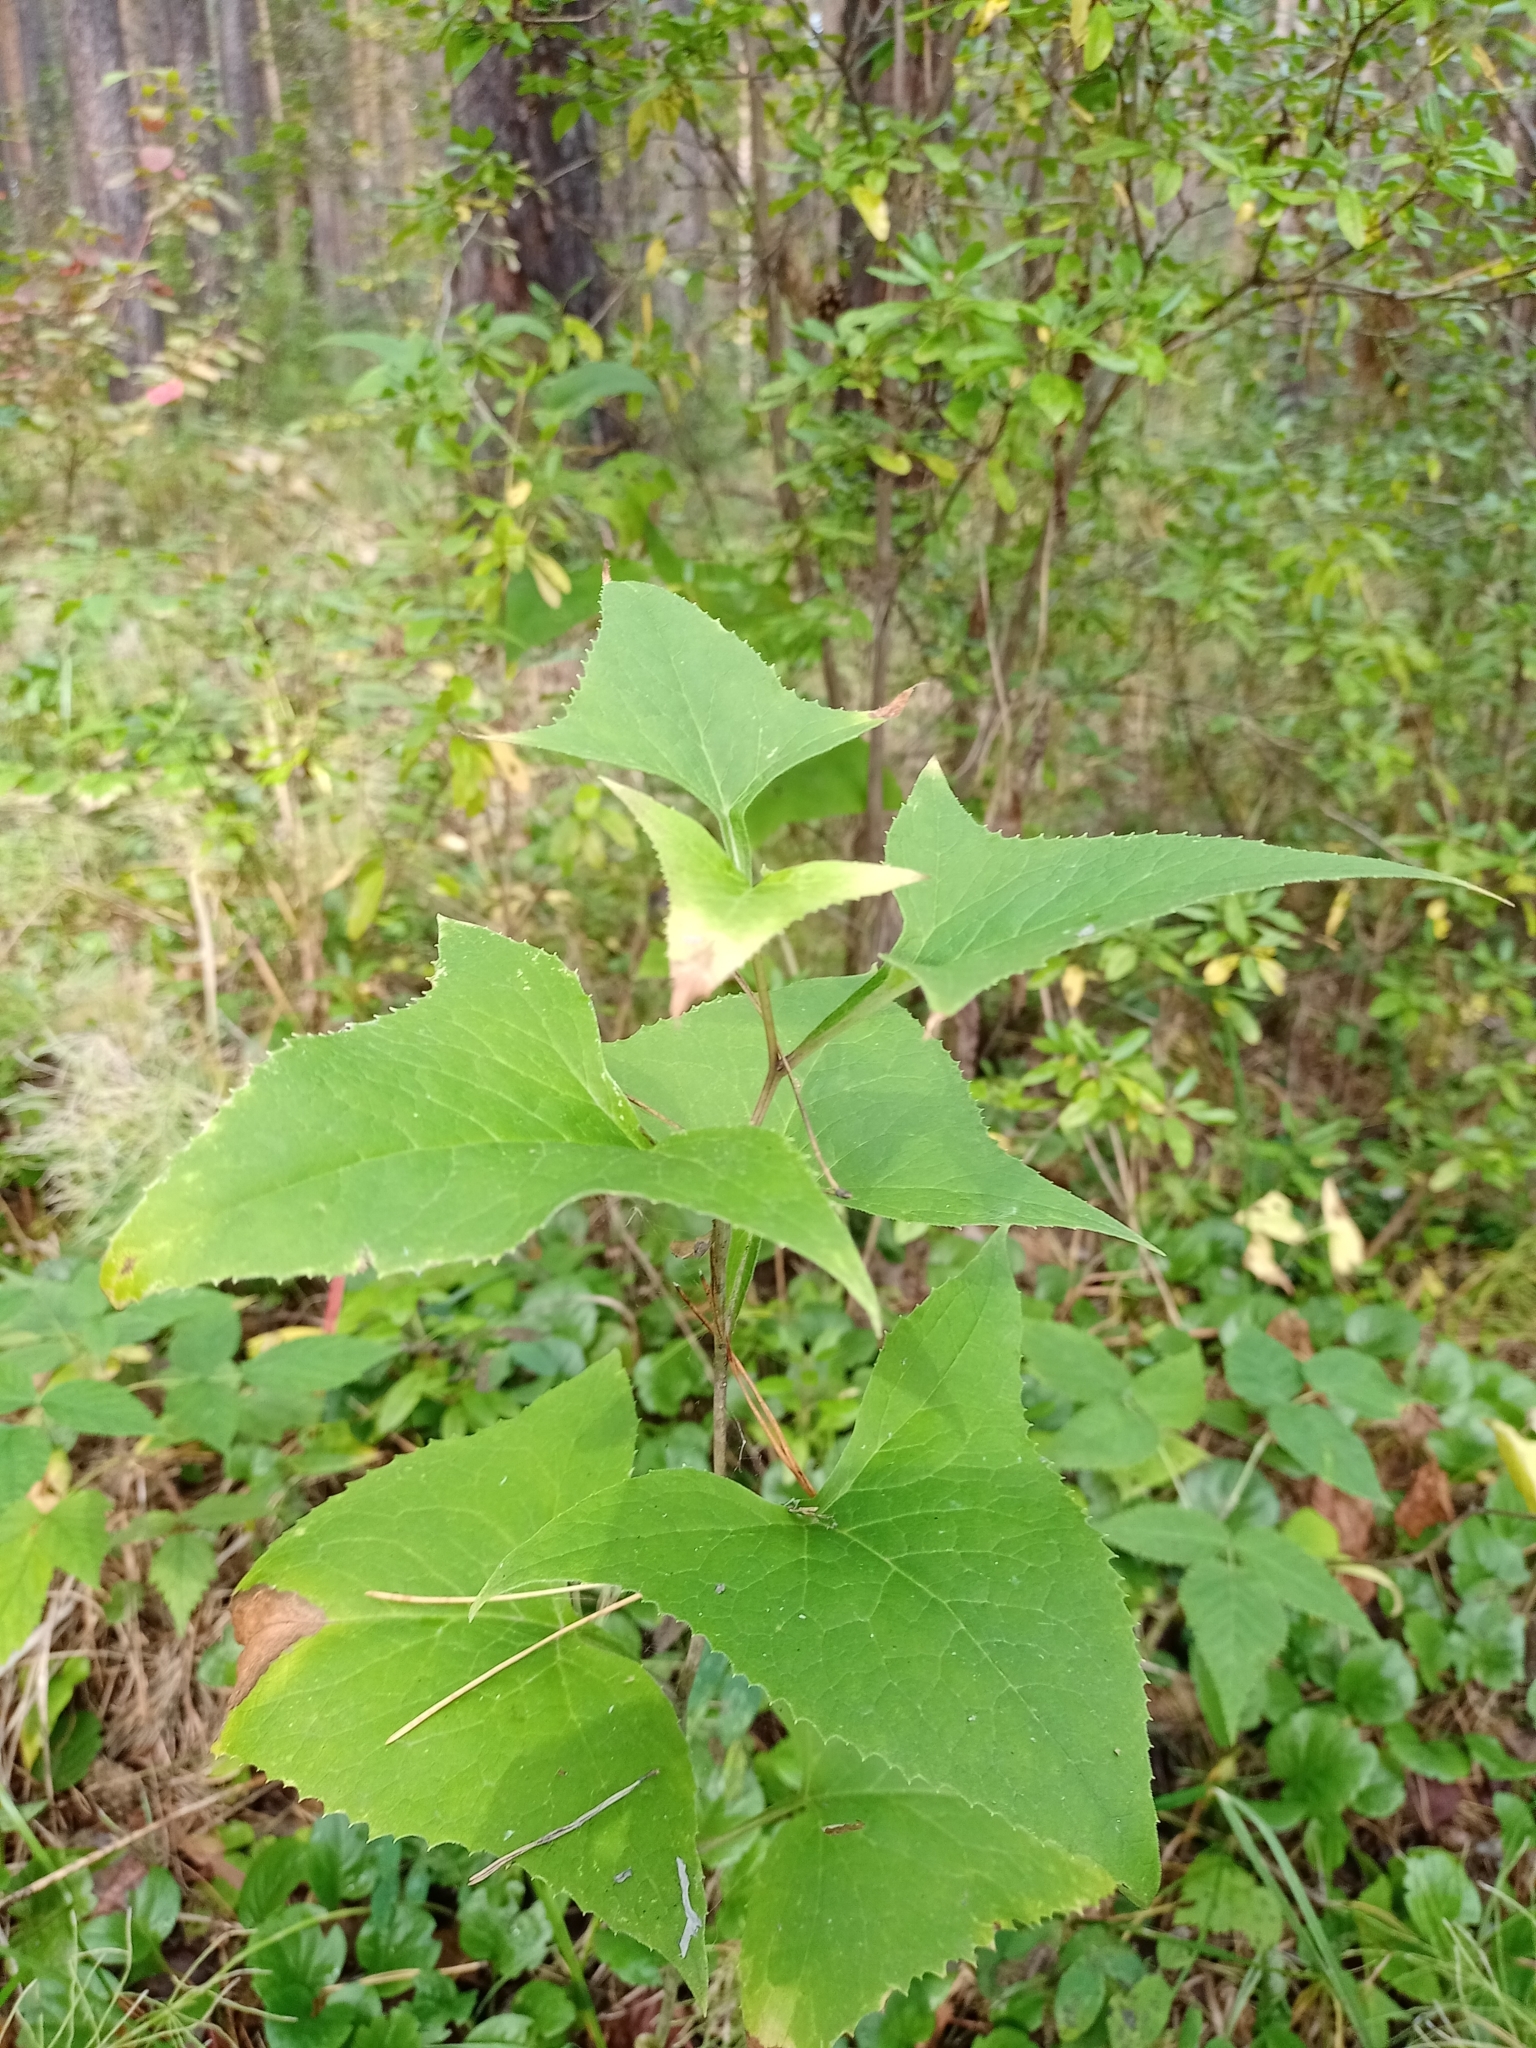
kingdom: Plantae
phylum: Tracheophyta
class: Magnoliopsida
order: Asterales
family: Asteraceae
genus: Parasenecio
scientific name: Parasenecio hastatus
